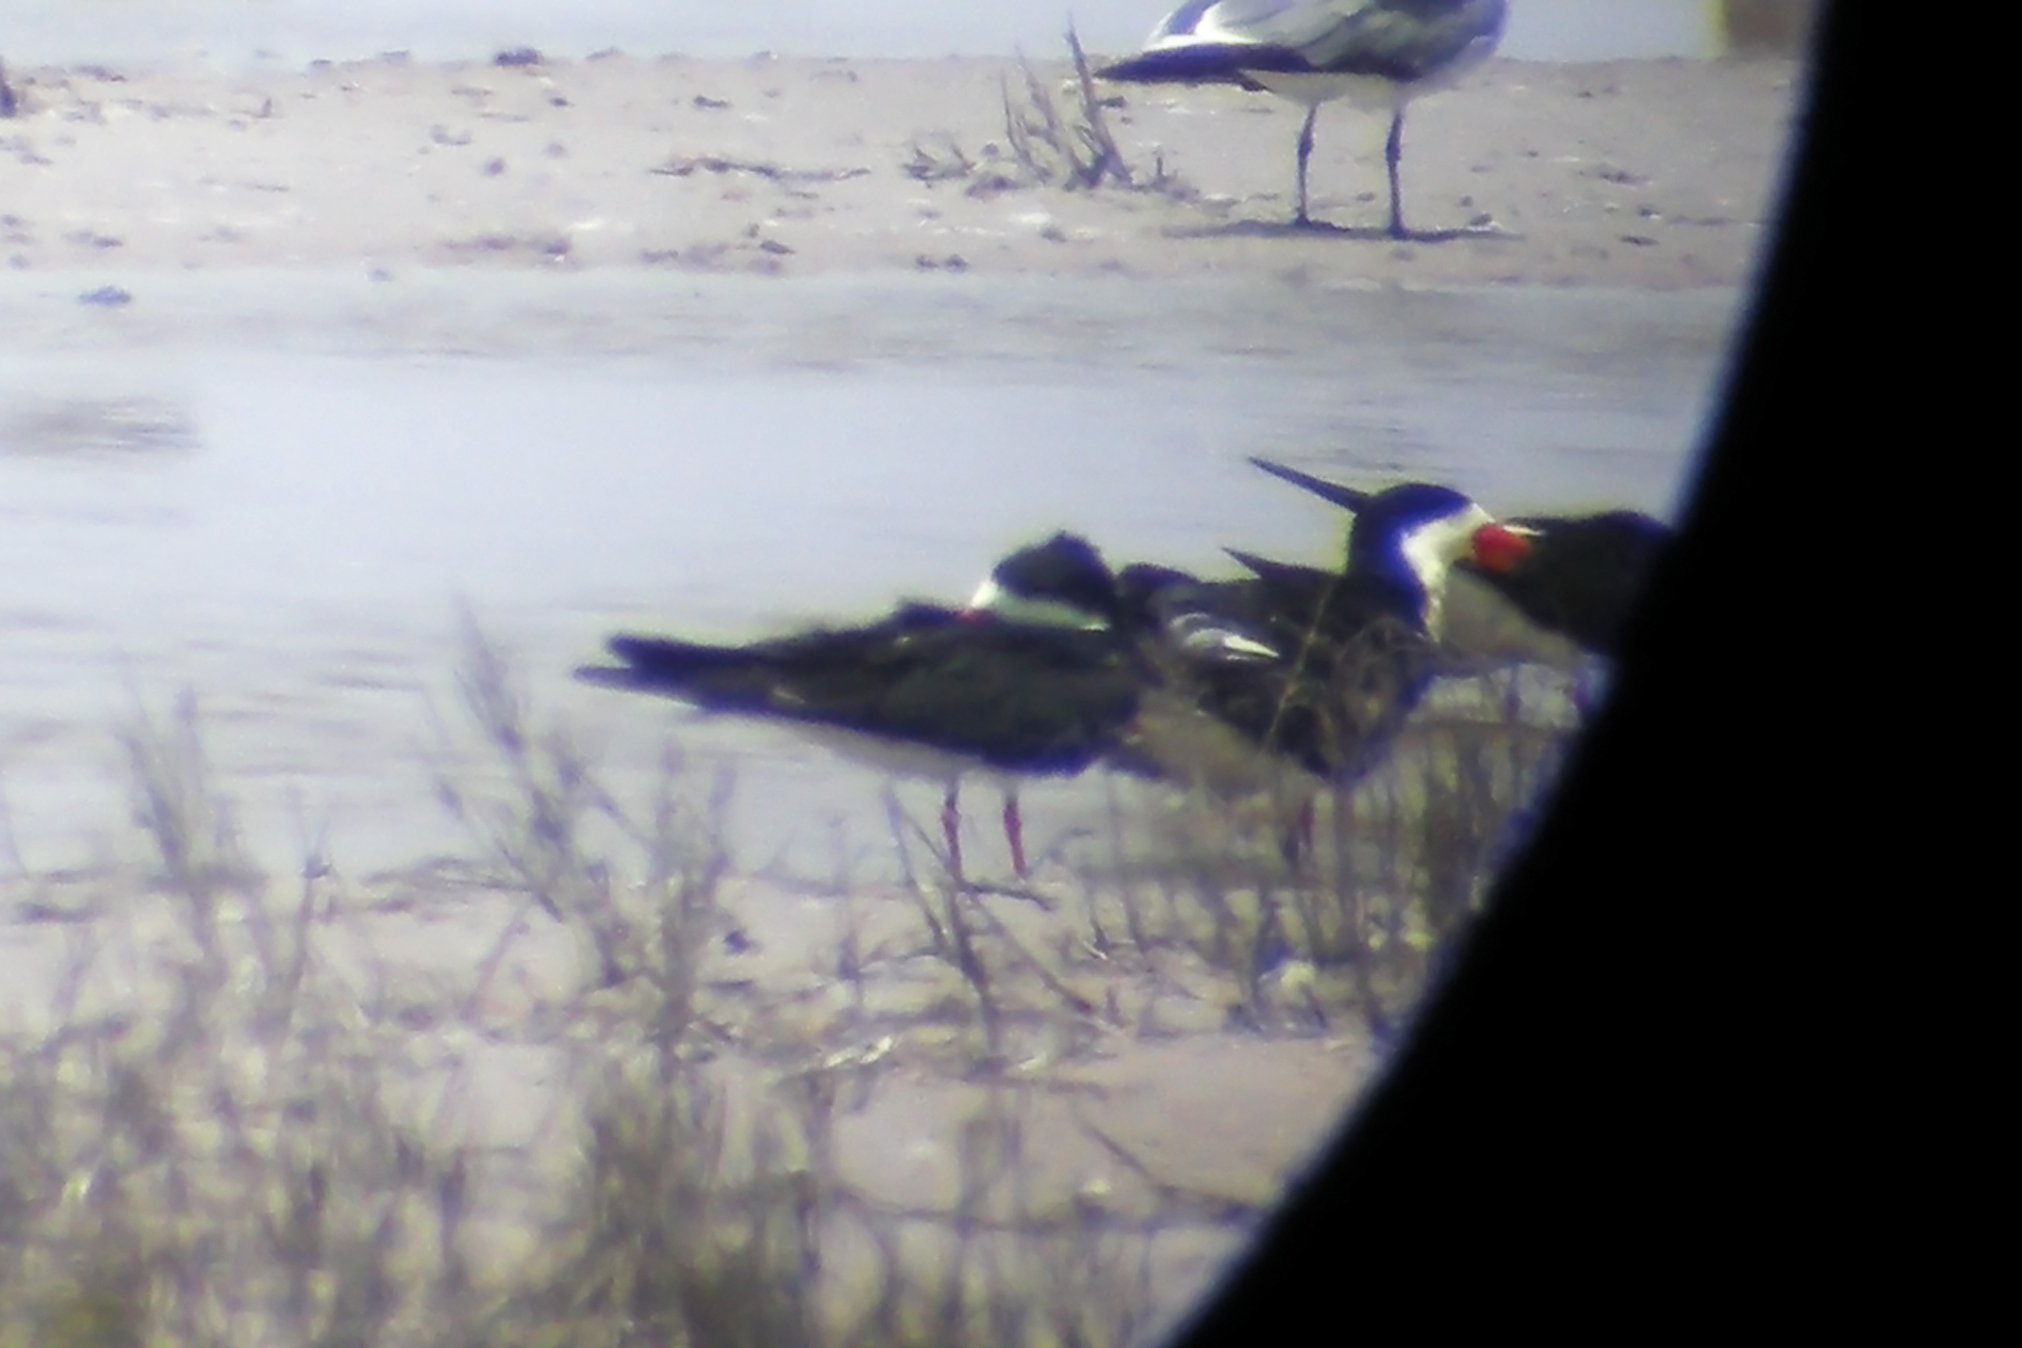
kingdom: Animalia
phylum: Chordata
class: Aves
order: Charadriiformes
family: Laridae
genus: Rynchops
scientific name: Rynchops niger
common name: Black skimmer
